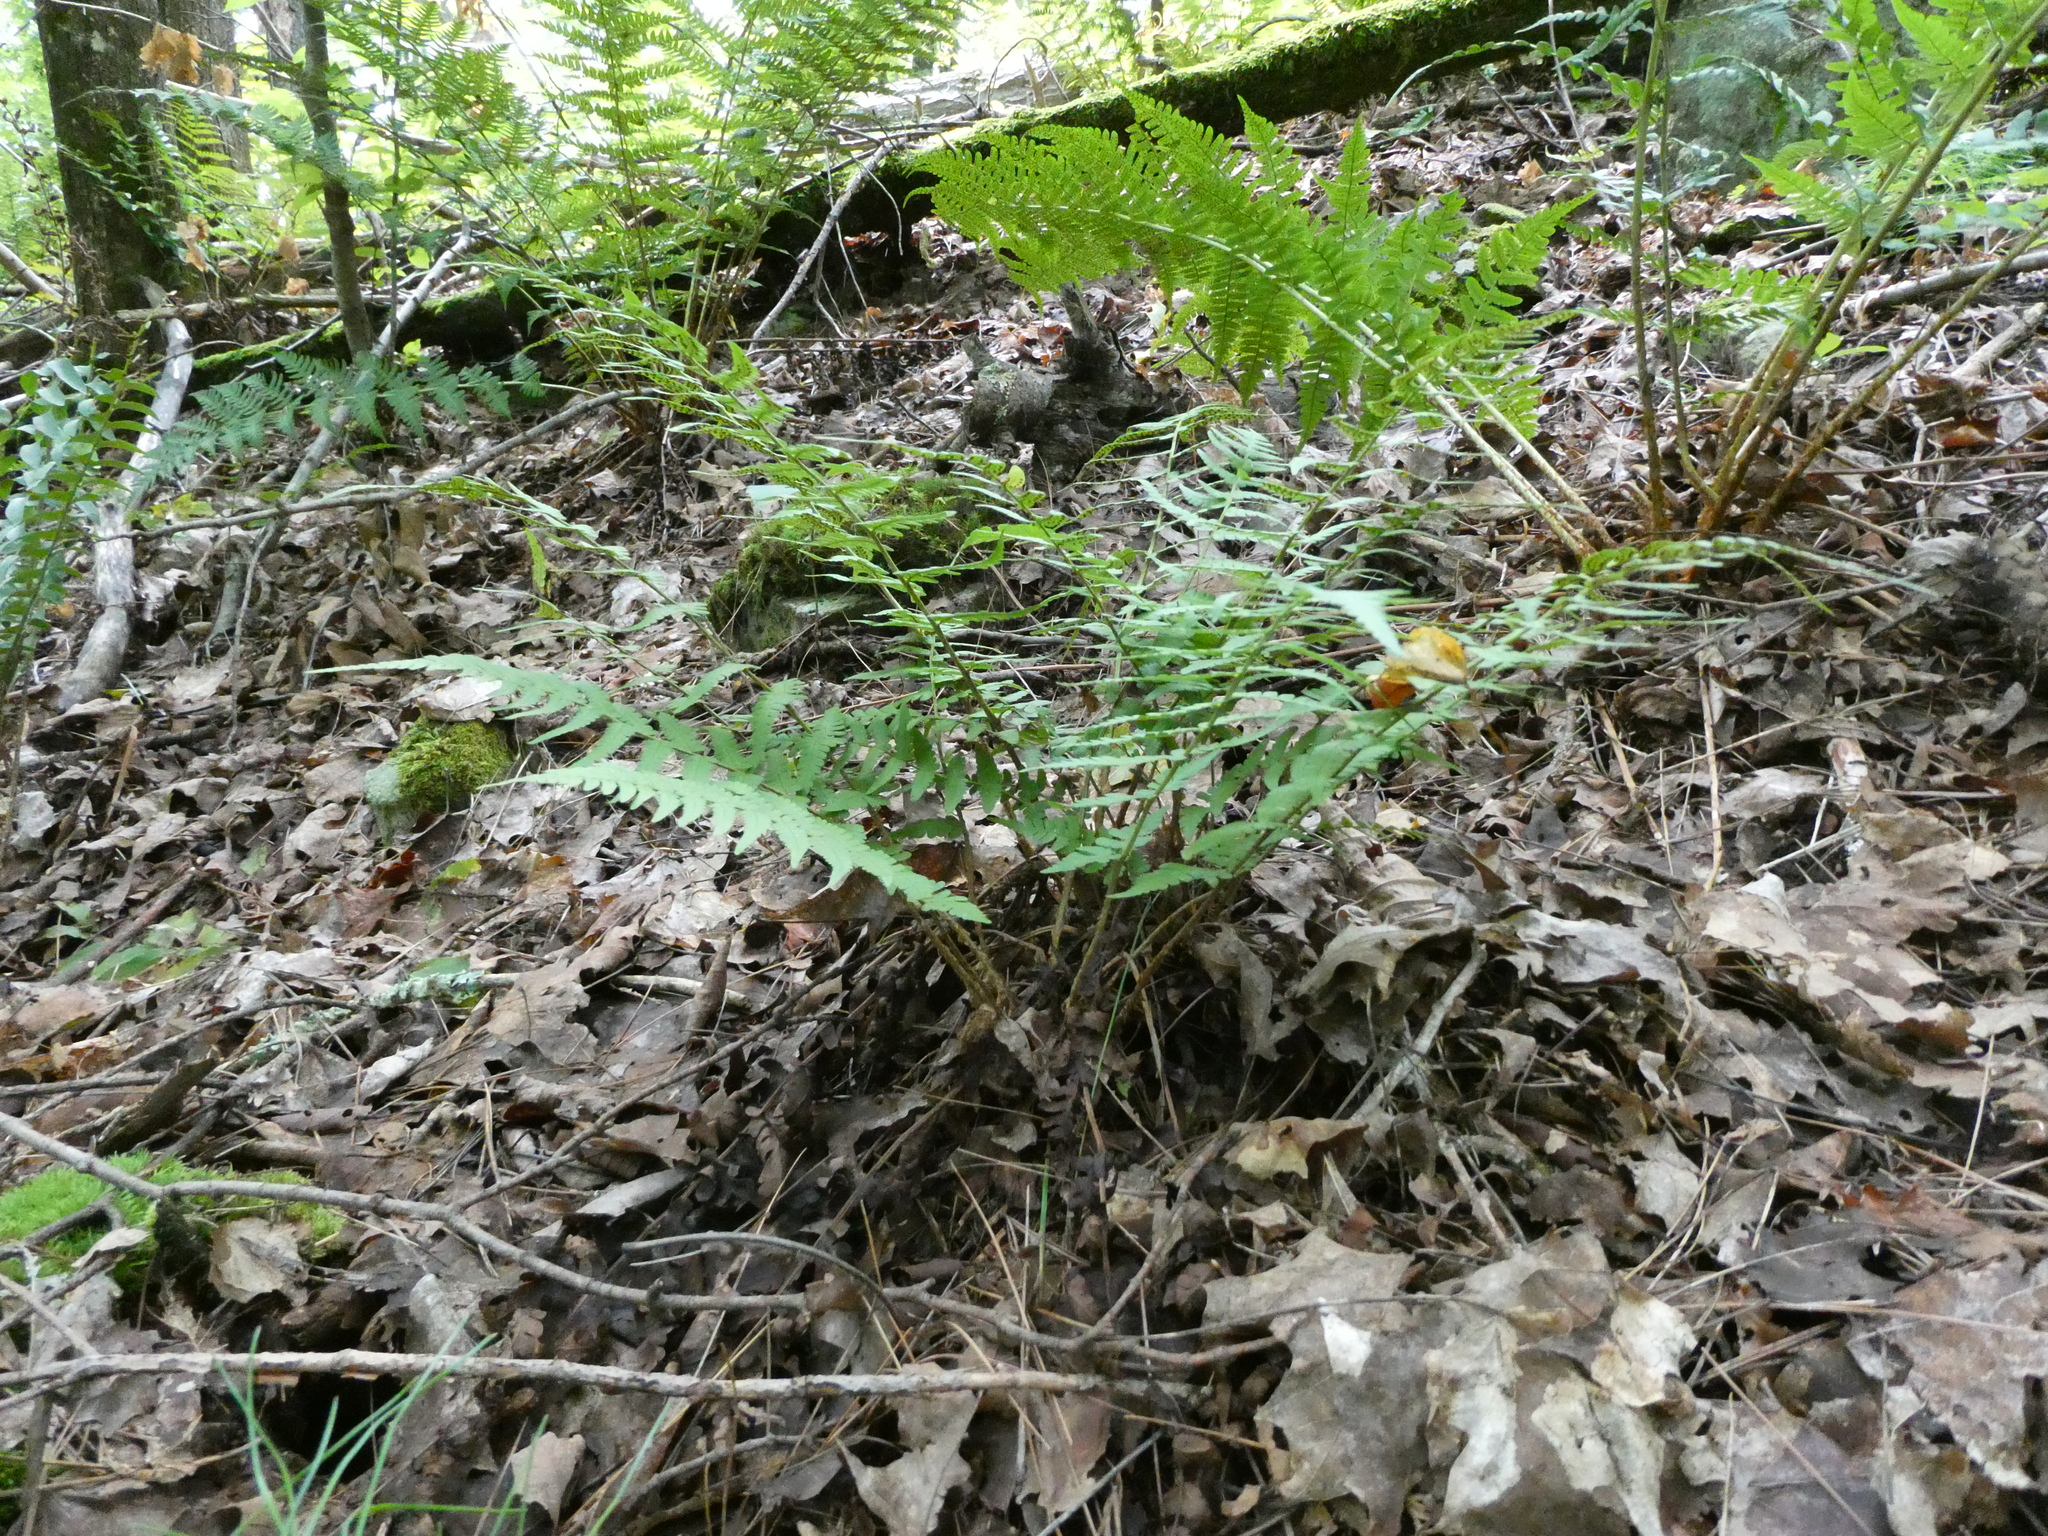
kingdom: Plantae
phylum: Tracheophyta
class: Polypodiopsida
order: Polypodiales
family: Dryopteridaceae
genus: Dryopteris
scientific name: Dryopteris marginalis
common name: Marginal wood fern
